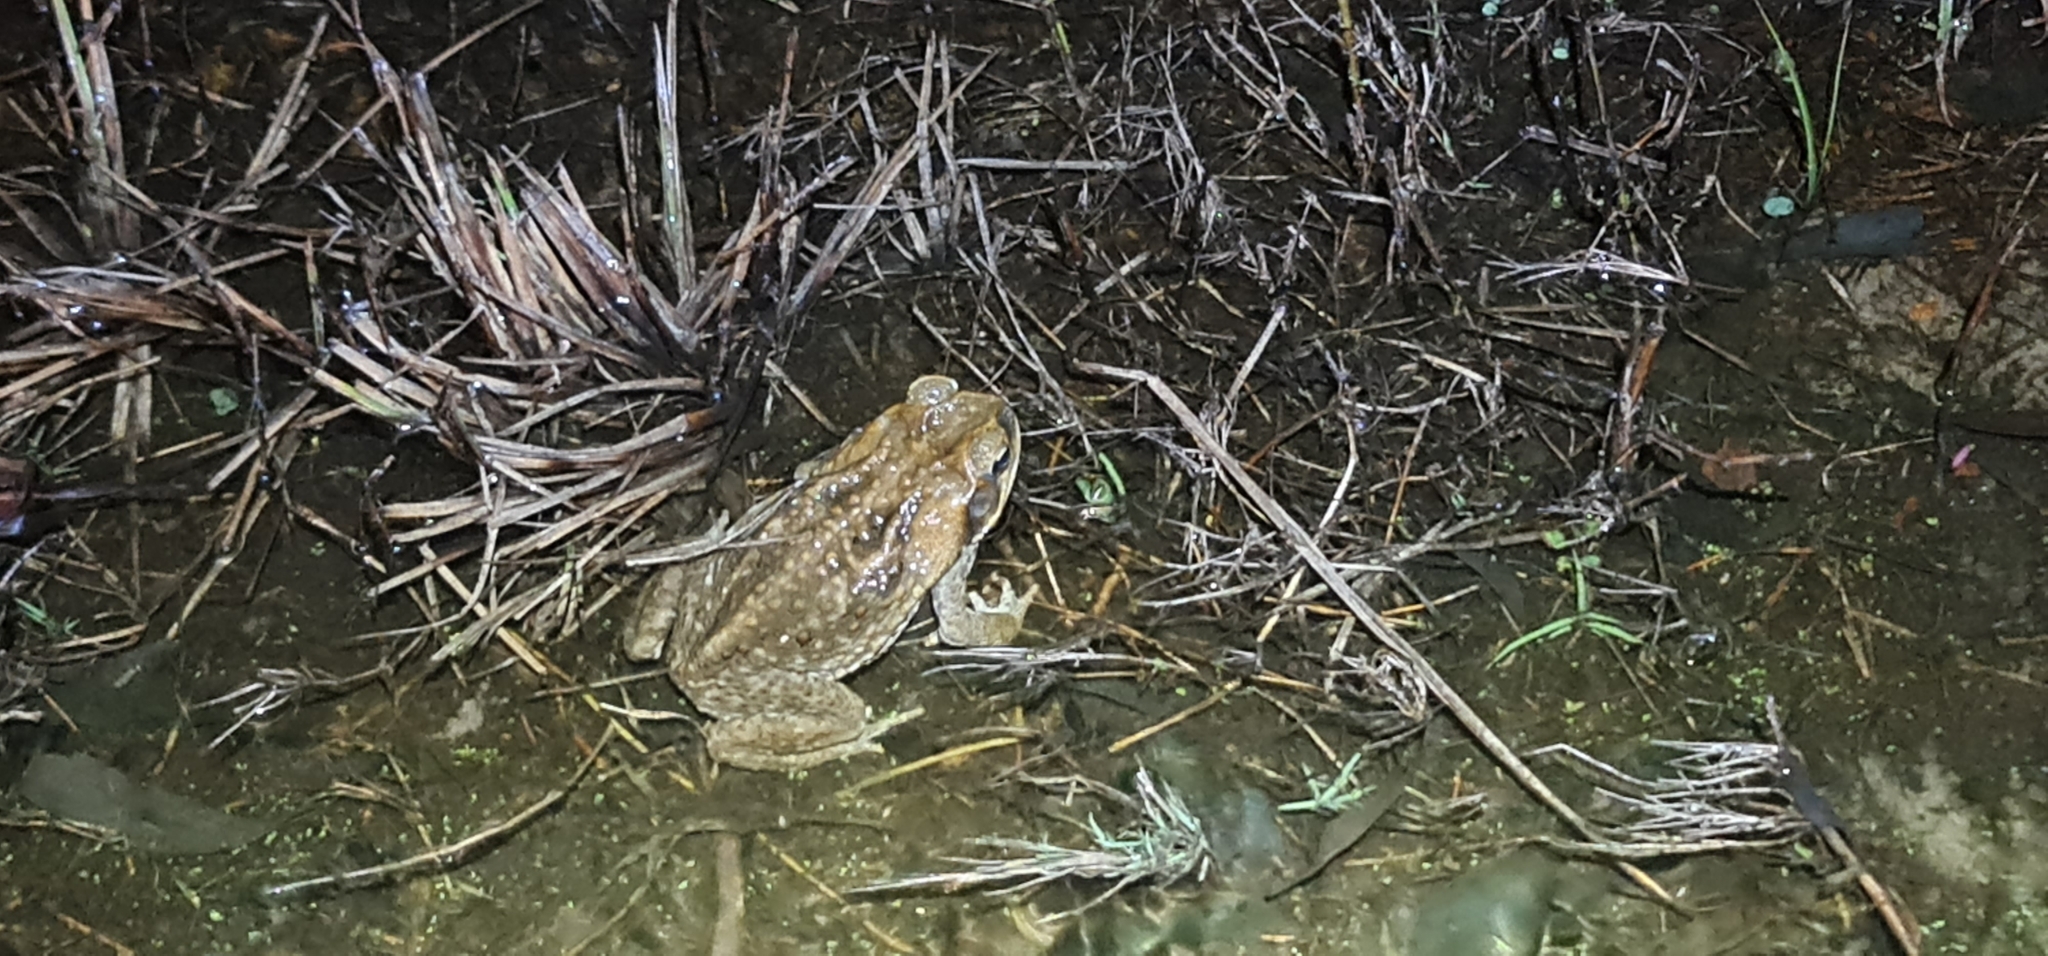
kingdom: Animalia
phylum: Chordata
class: Amphibia
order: Anura
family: Bufonidae
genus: Rhinella
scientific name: Rhinella marina
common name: Cane toad
